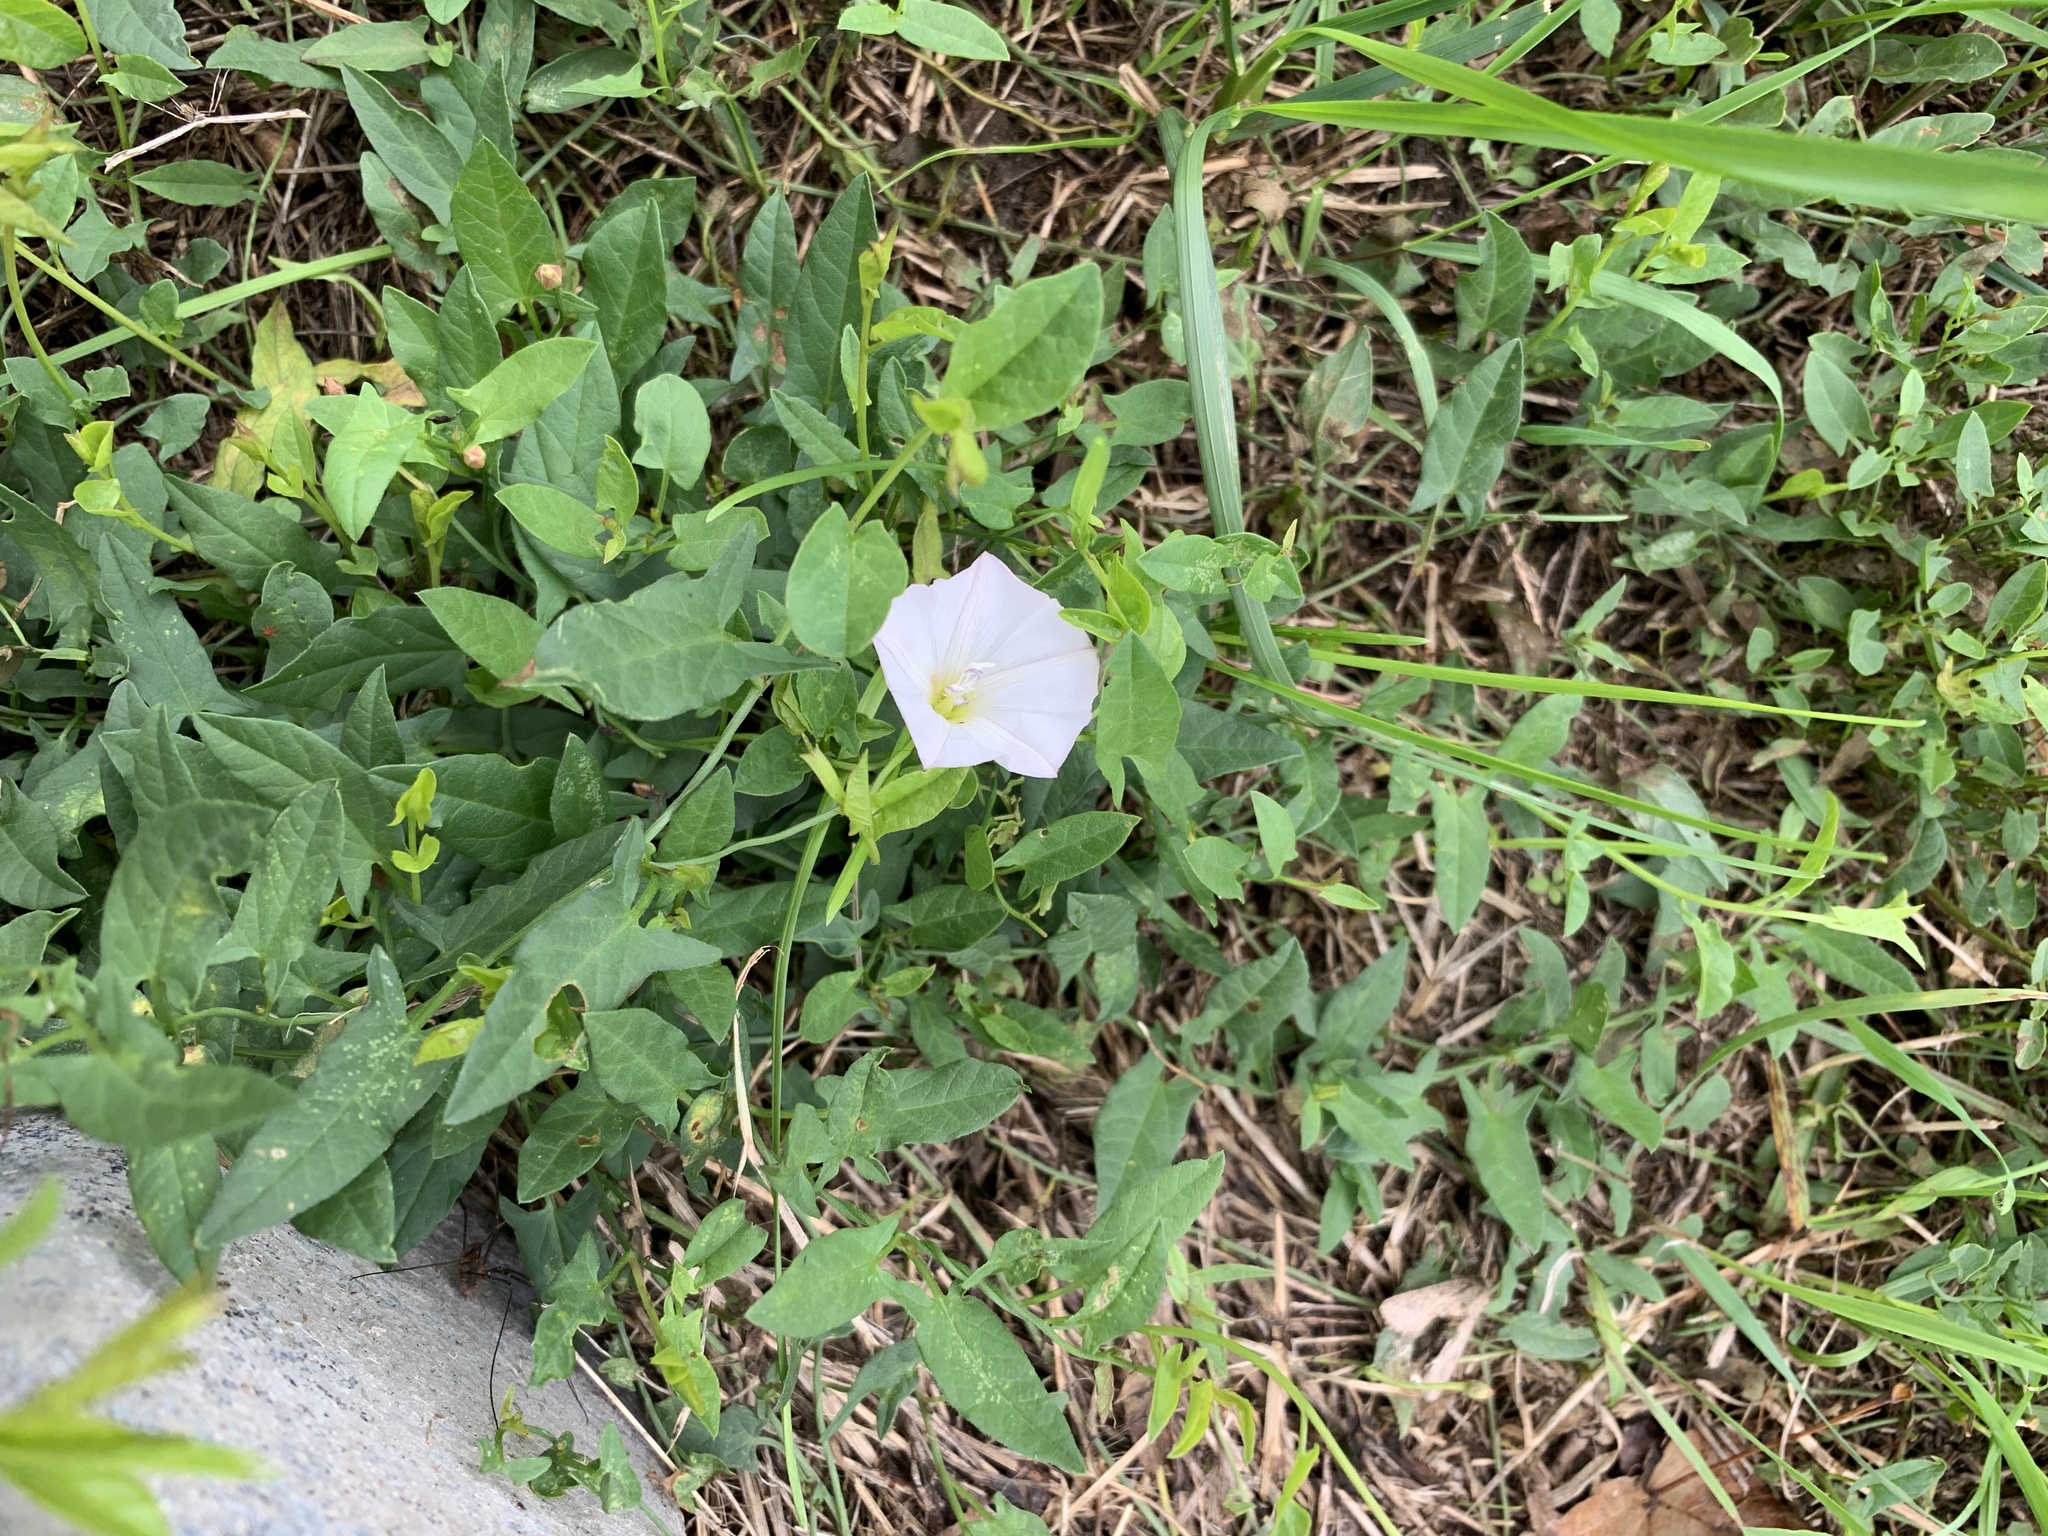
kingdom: Plantae
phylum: Tracheophyta
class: Magnoliopsida
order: Solanales
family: Convolvulaceae
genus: Convolvulus
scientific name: Convolvulus arvensis
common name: Field bindweed
